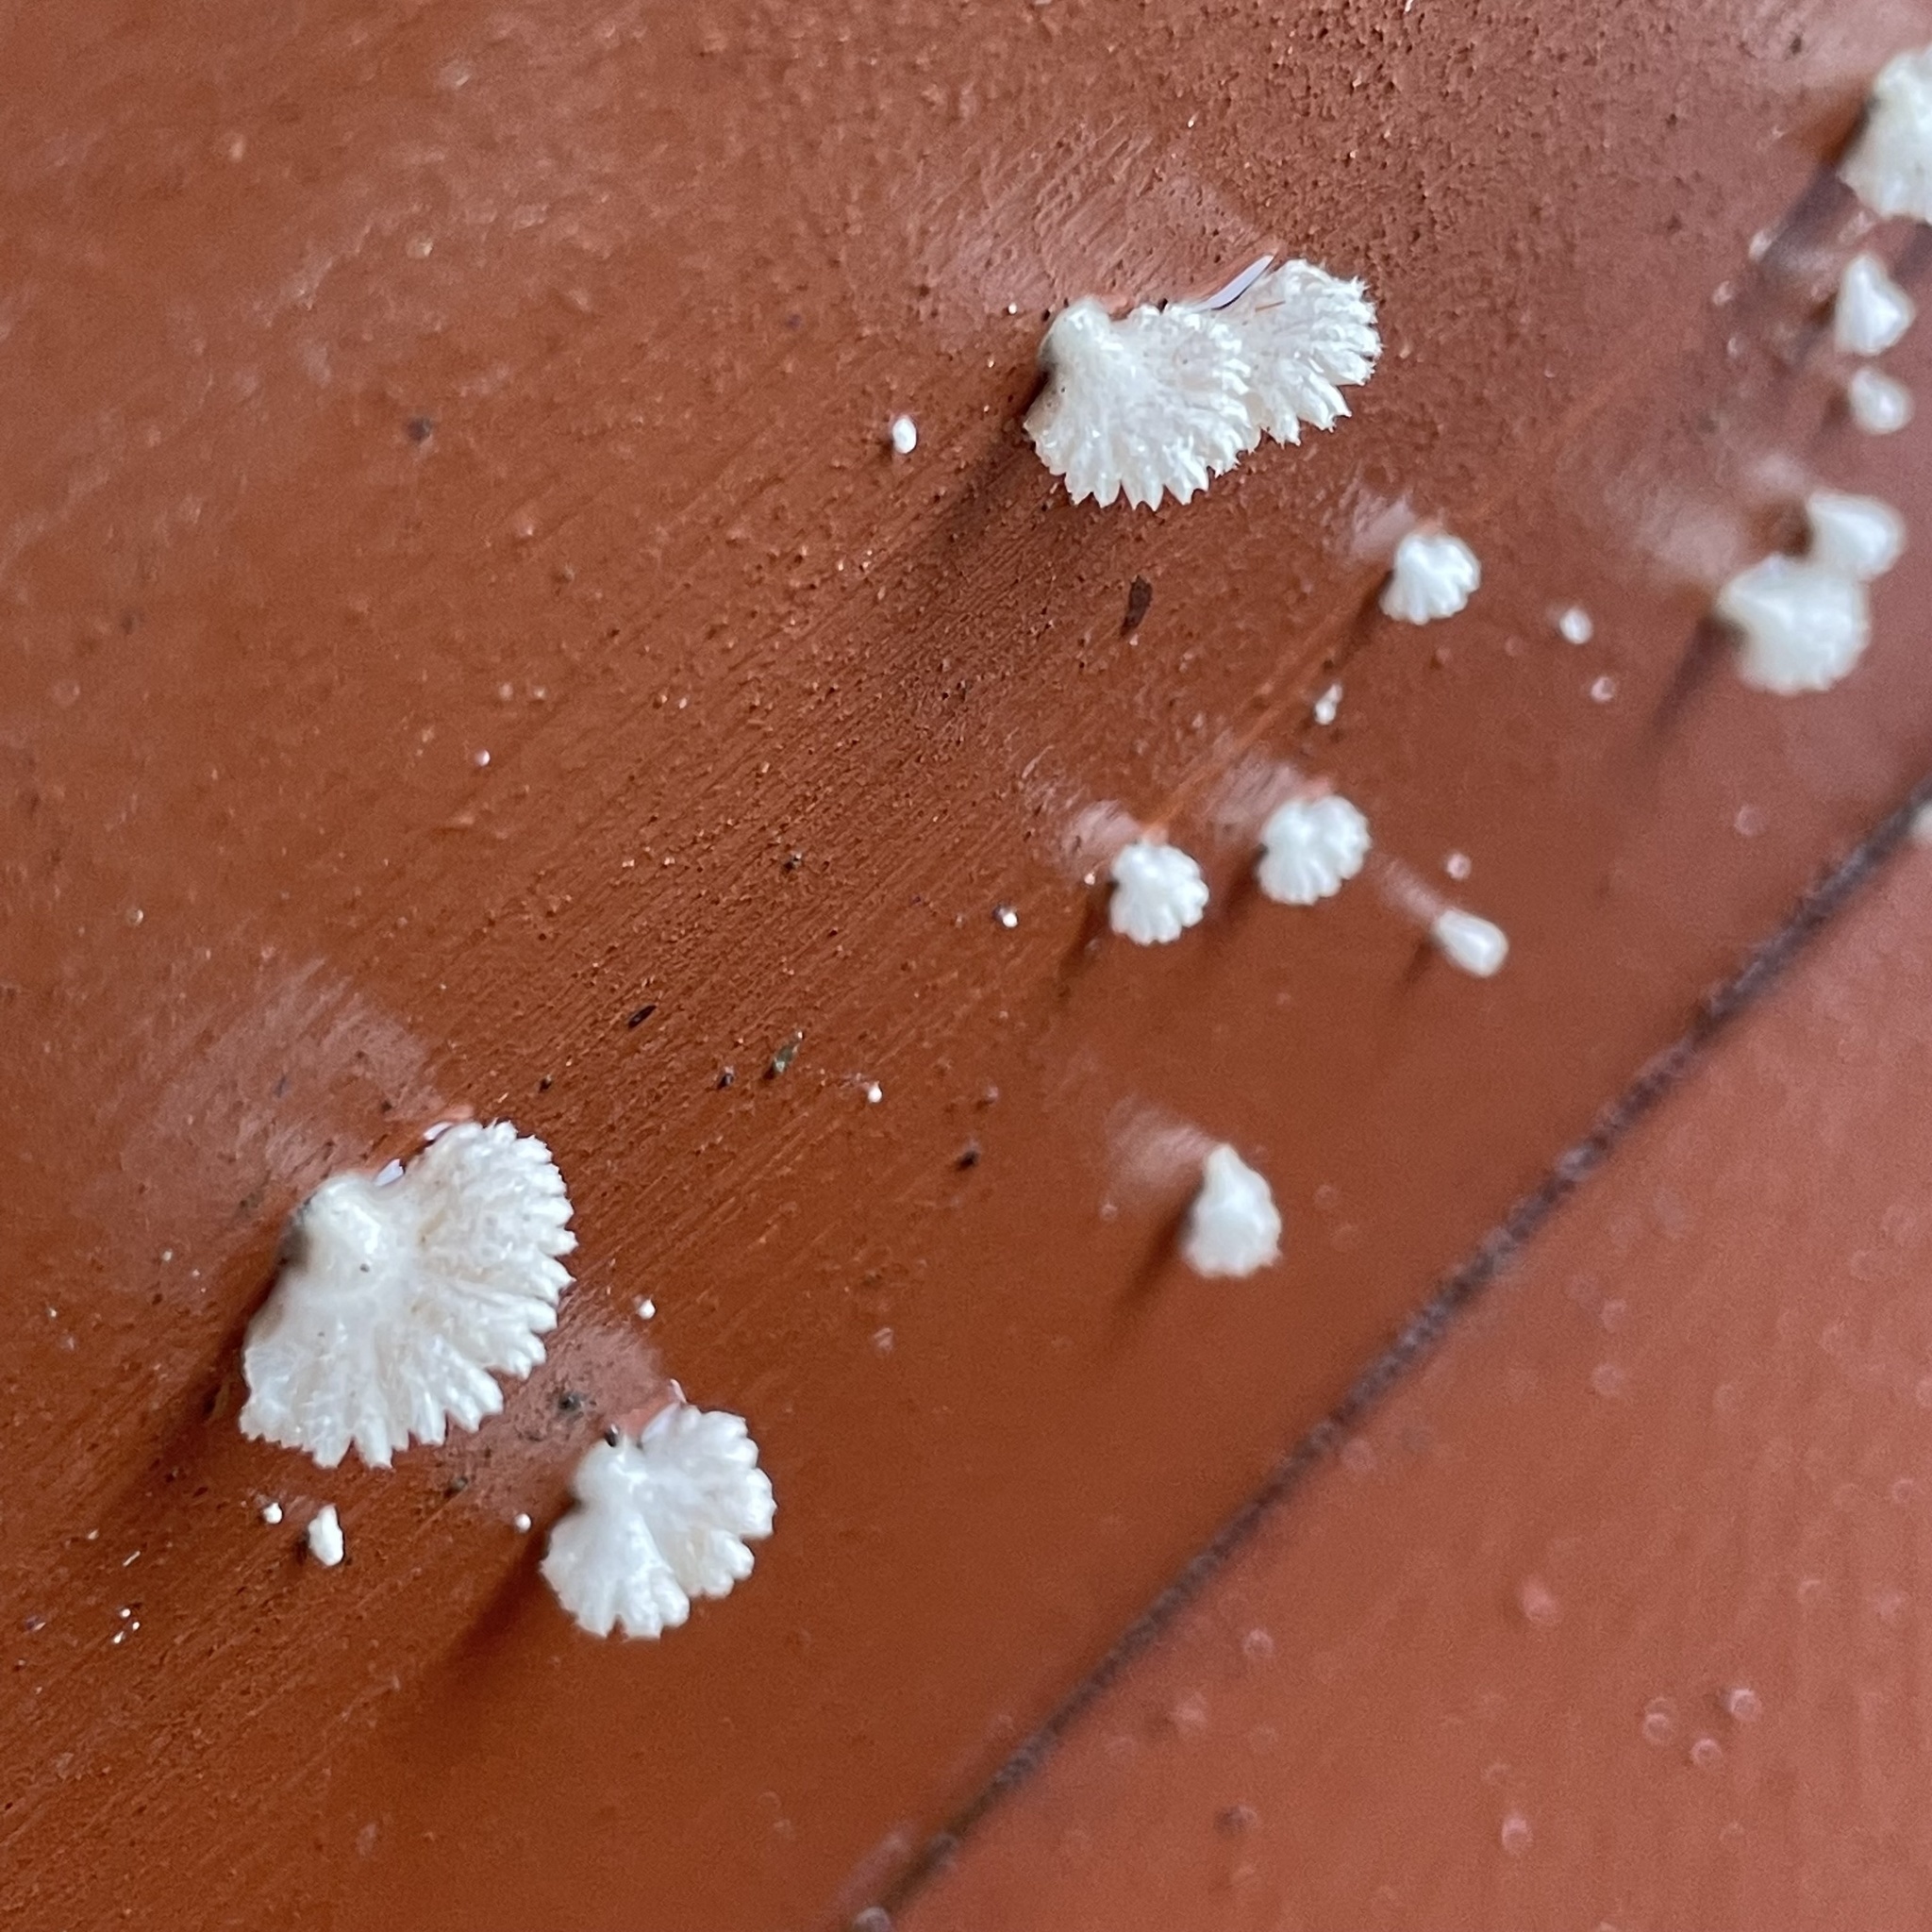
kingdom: Fungi
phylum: Basidiomycota
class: Agaricomycetes
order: Agaricales
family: Schizophyllaceae
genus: Schizophyllum
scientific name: Schizophyllum commune
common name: Common porecrust
